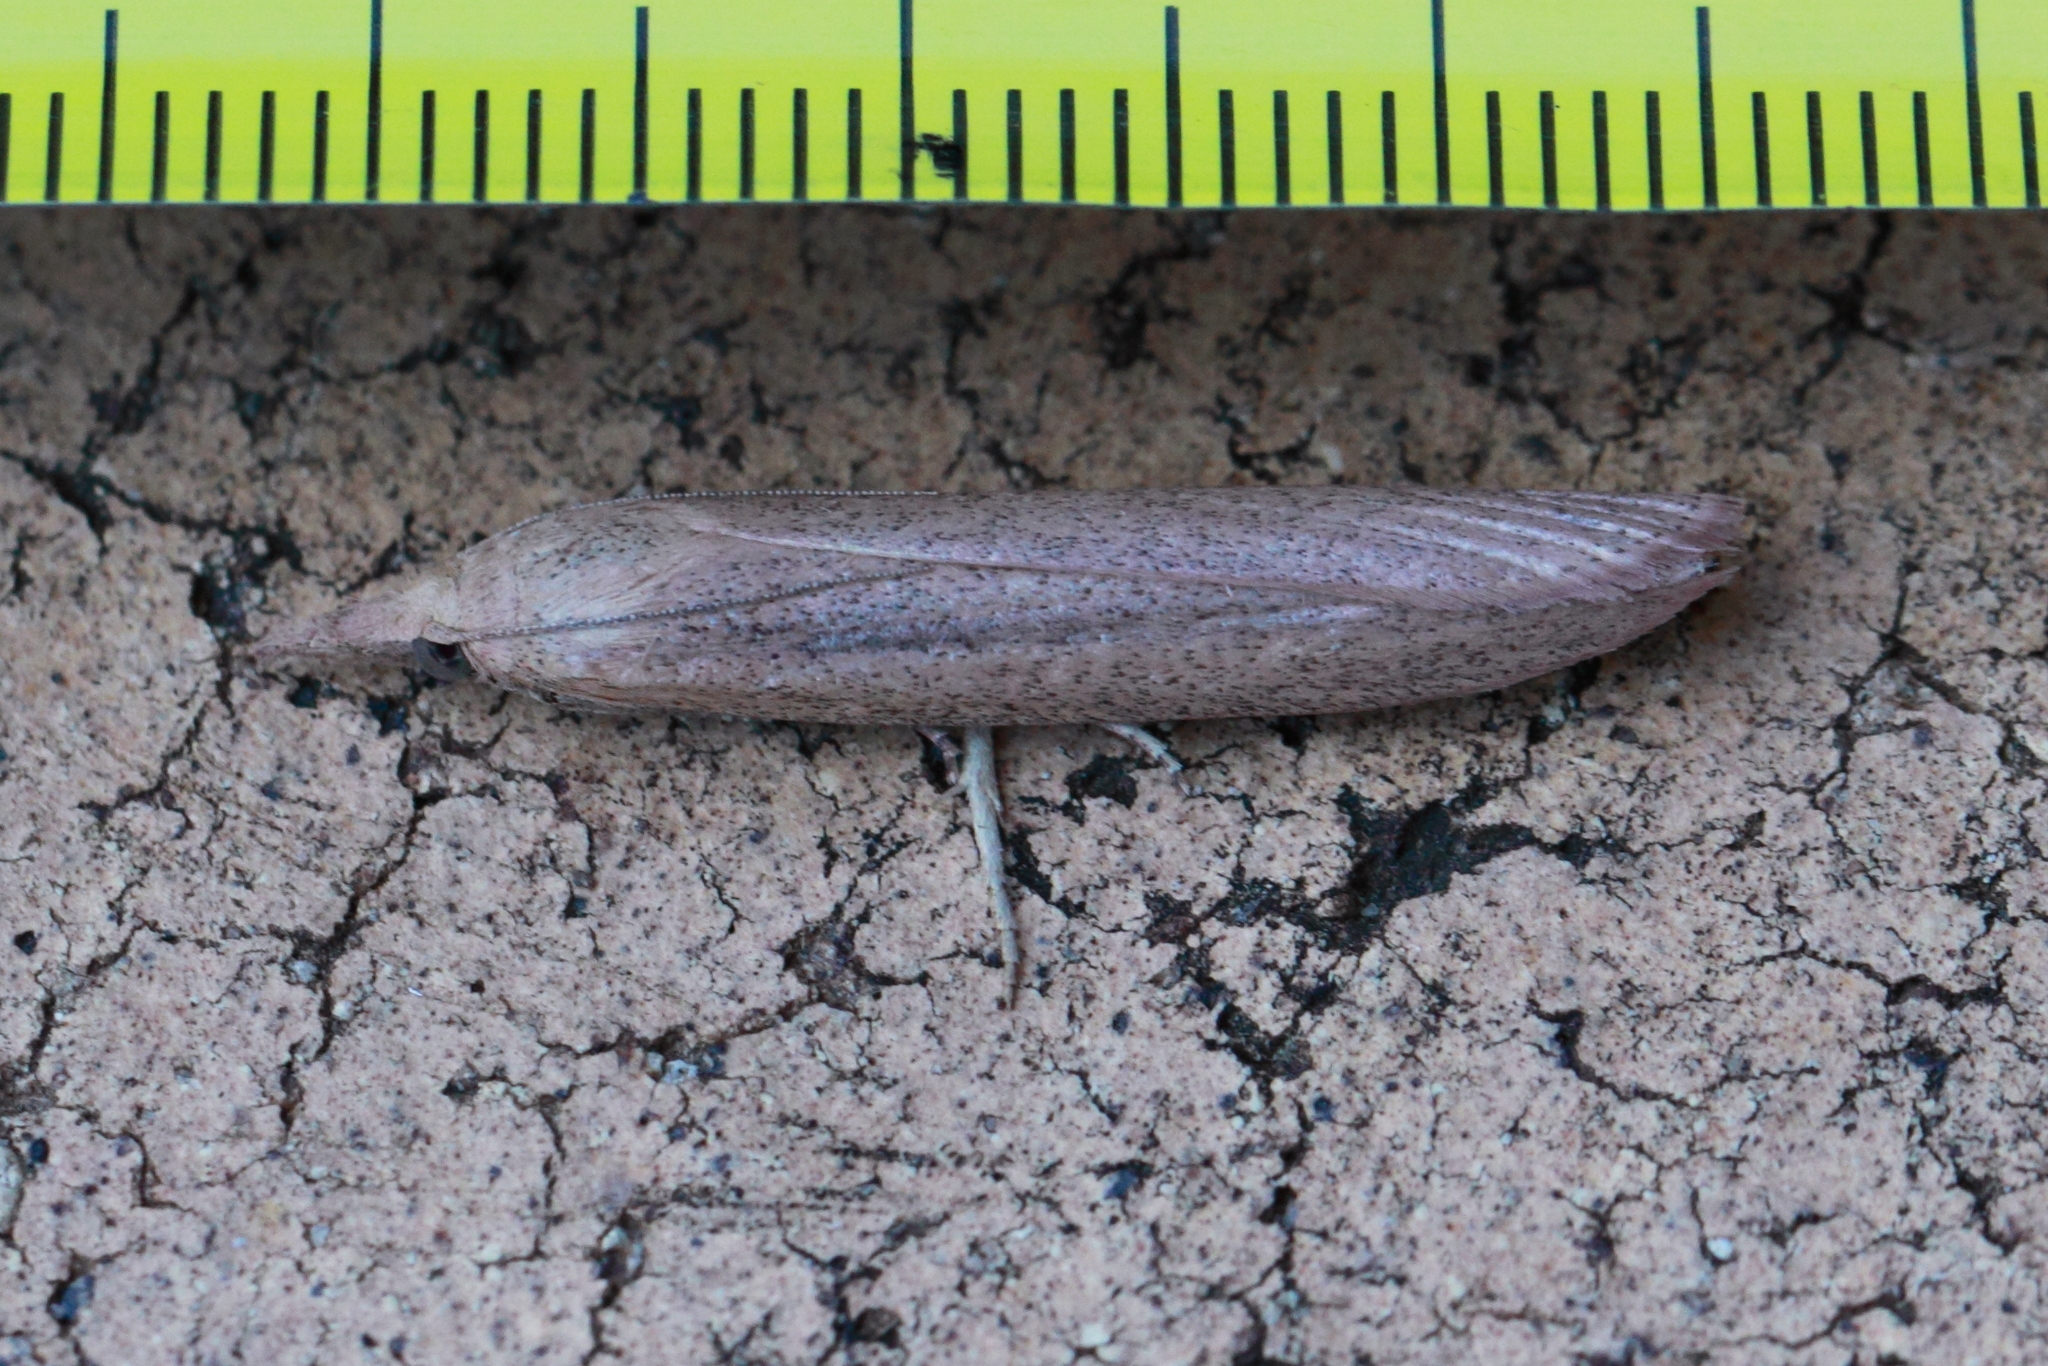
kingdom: Animalia
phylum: Arthropoda
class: Insecta
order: Lepidoptera
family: Pyralidae
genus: Meyriccia
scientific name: Meyriccia latro
